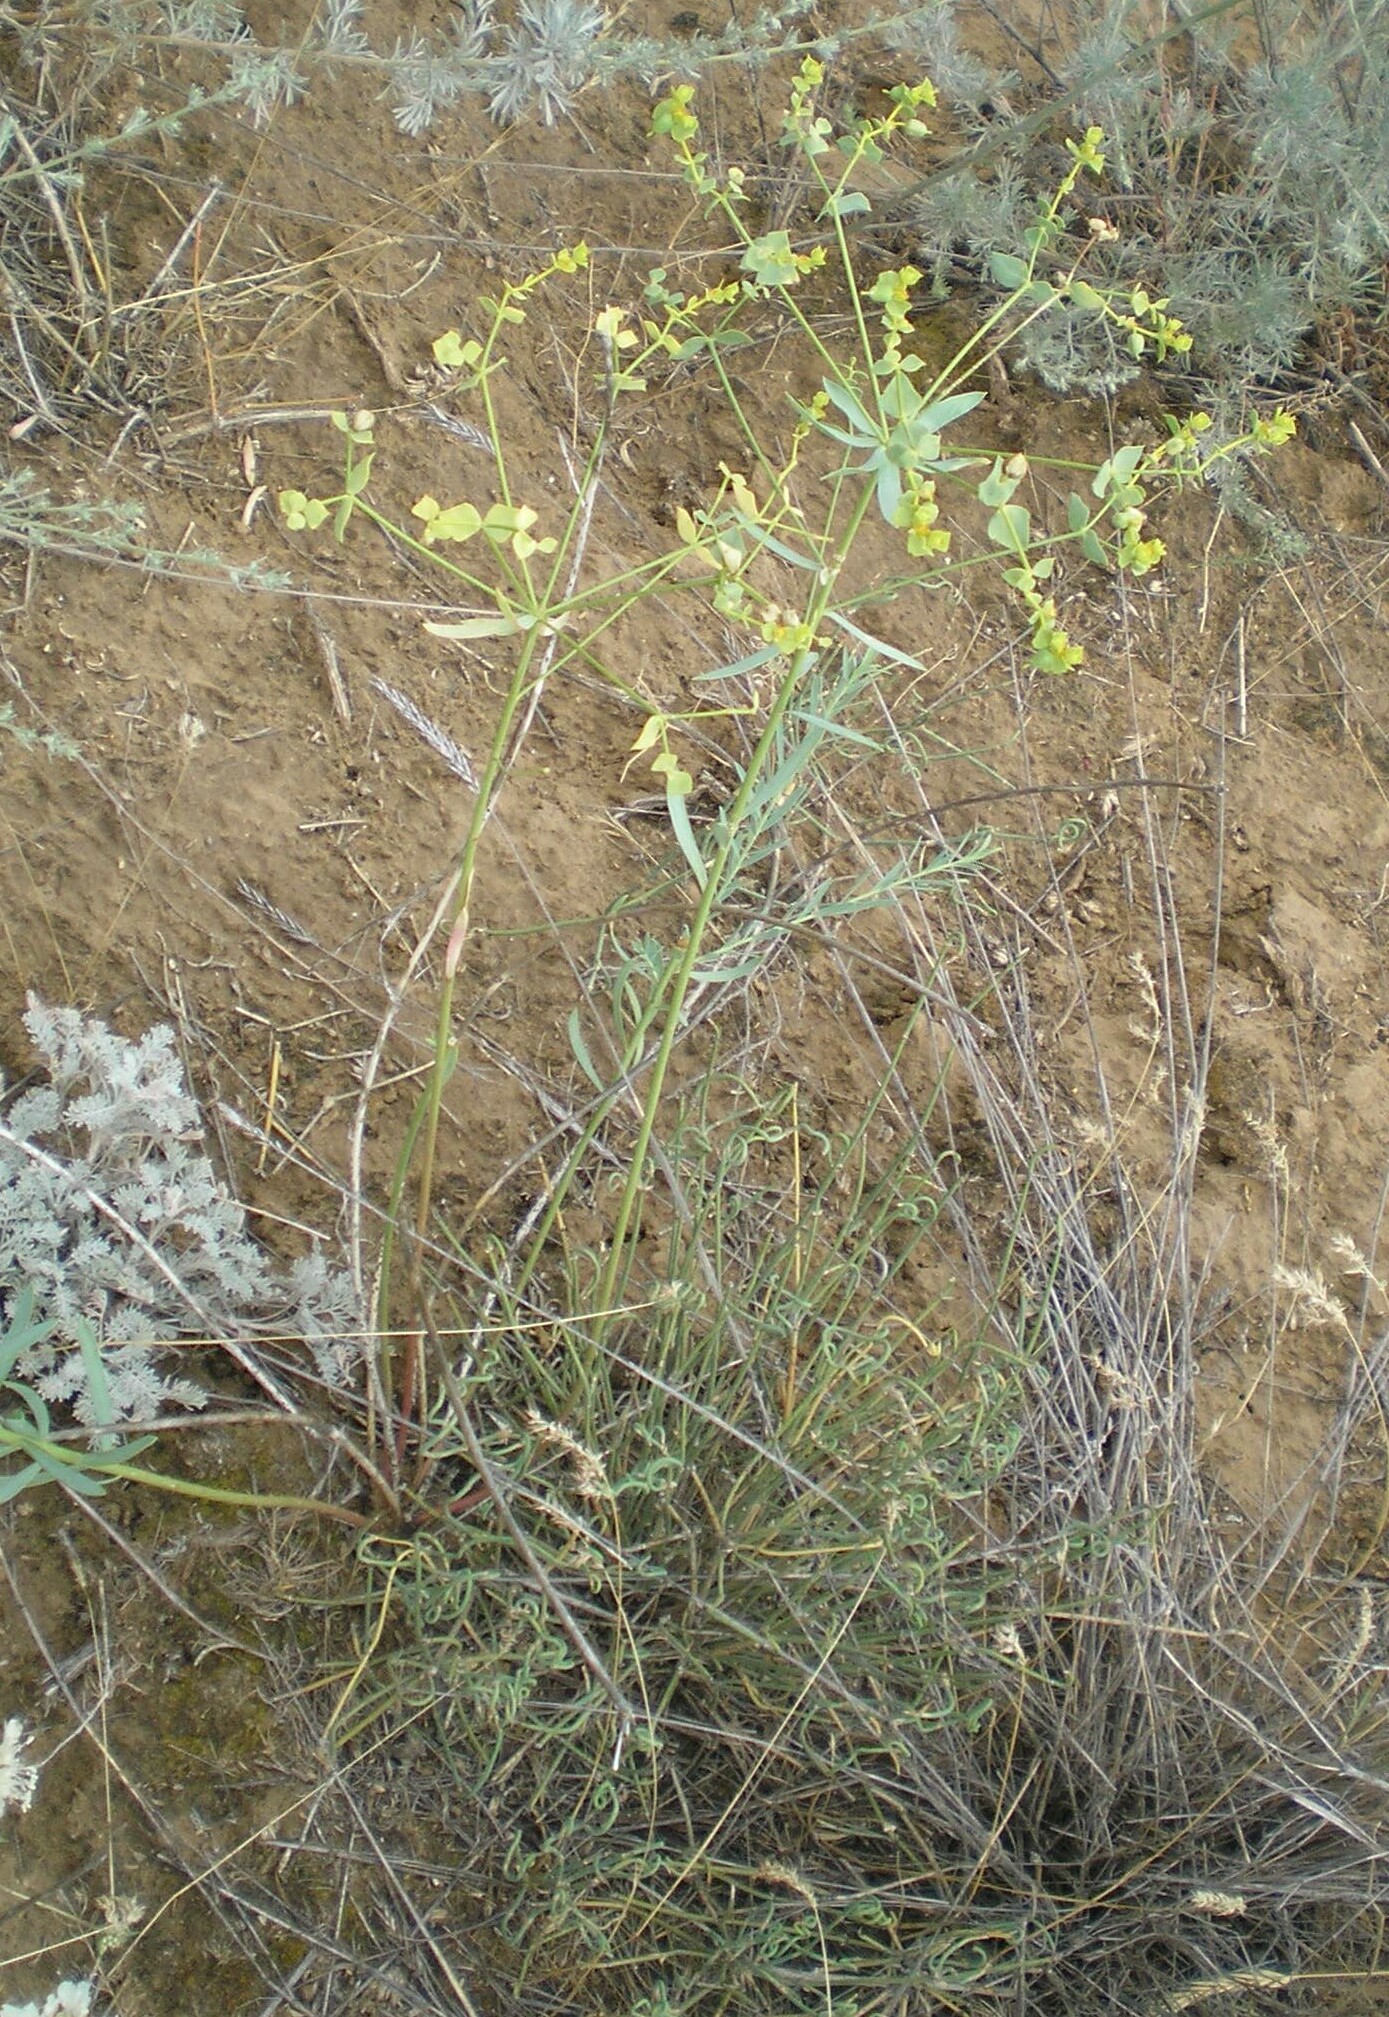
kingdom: Plantae
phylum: Tracheophyta
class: Magnoliopsida
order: Malpighiales
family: Euphorbiaceae
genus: Euphorbia
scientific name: Euphorbia seguieriana
